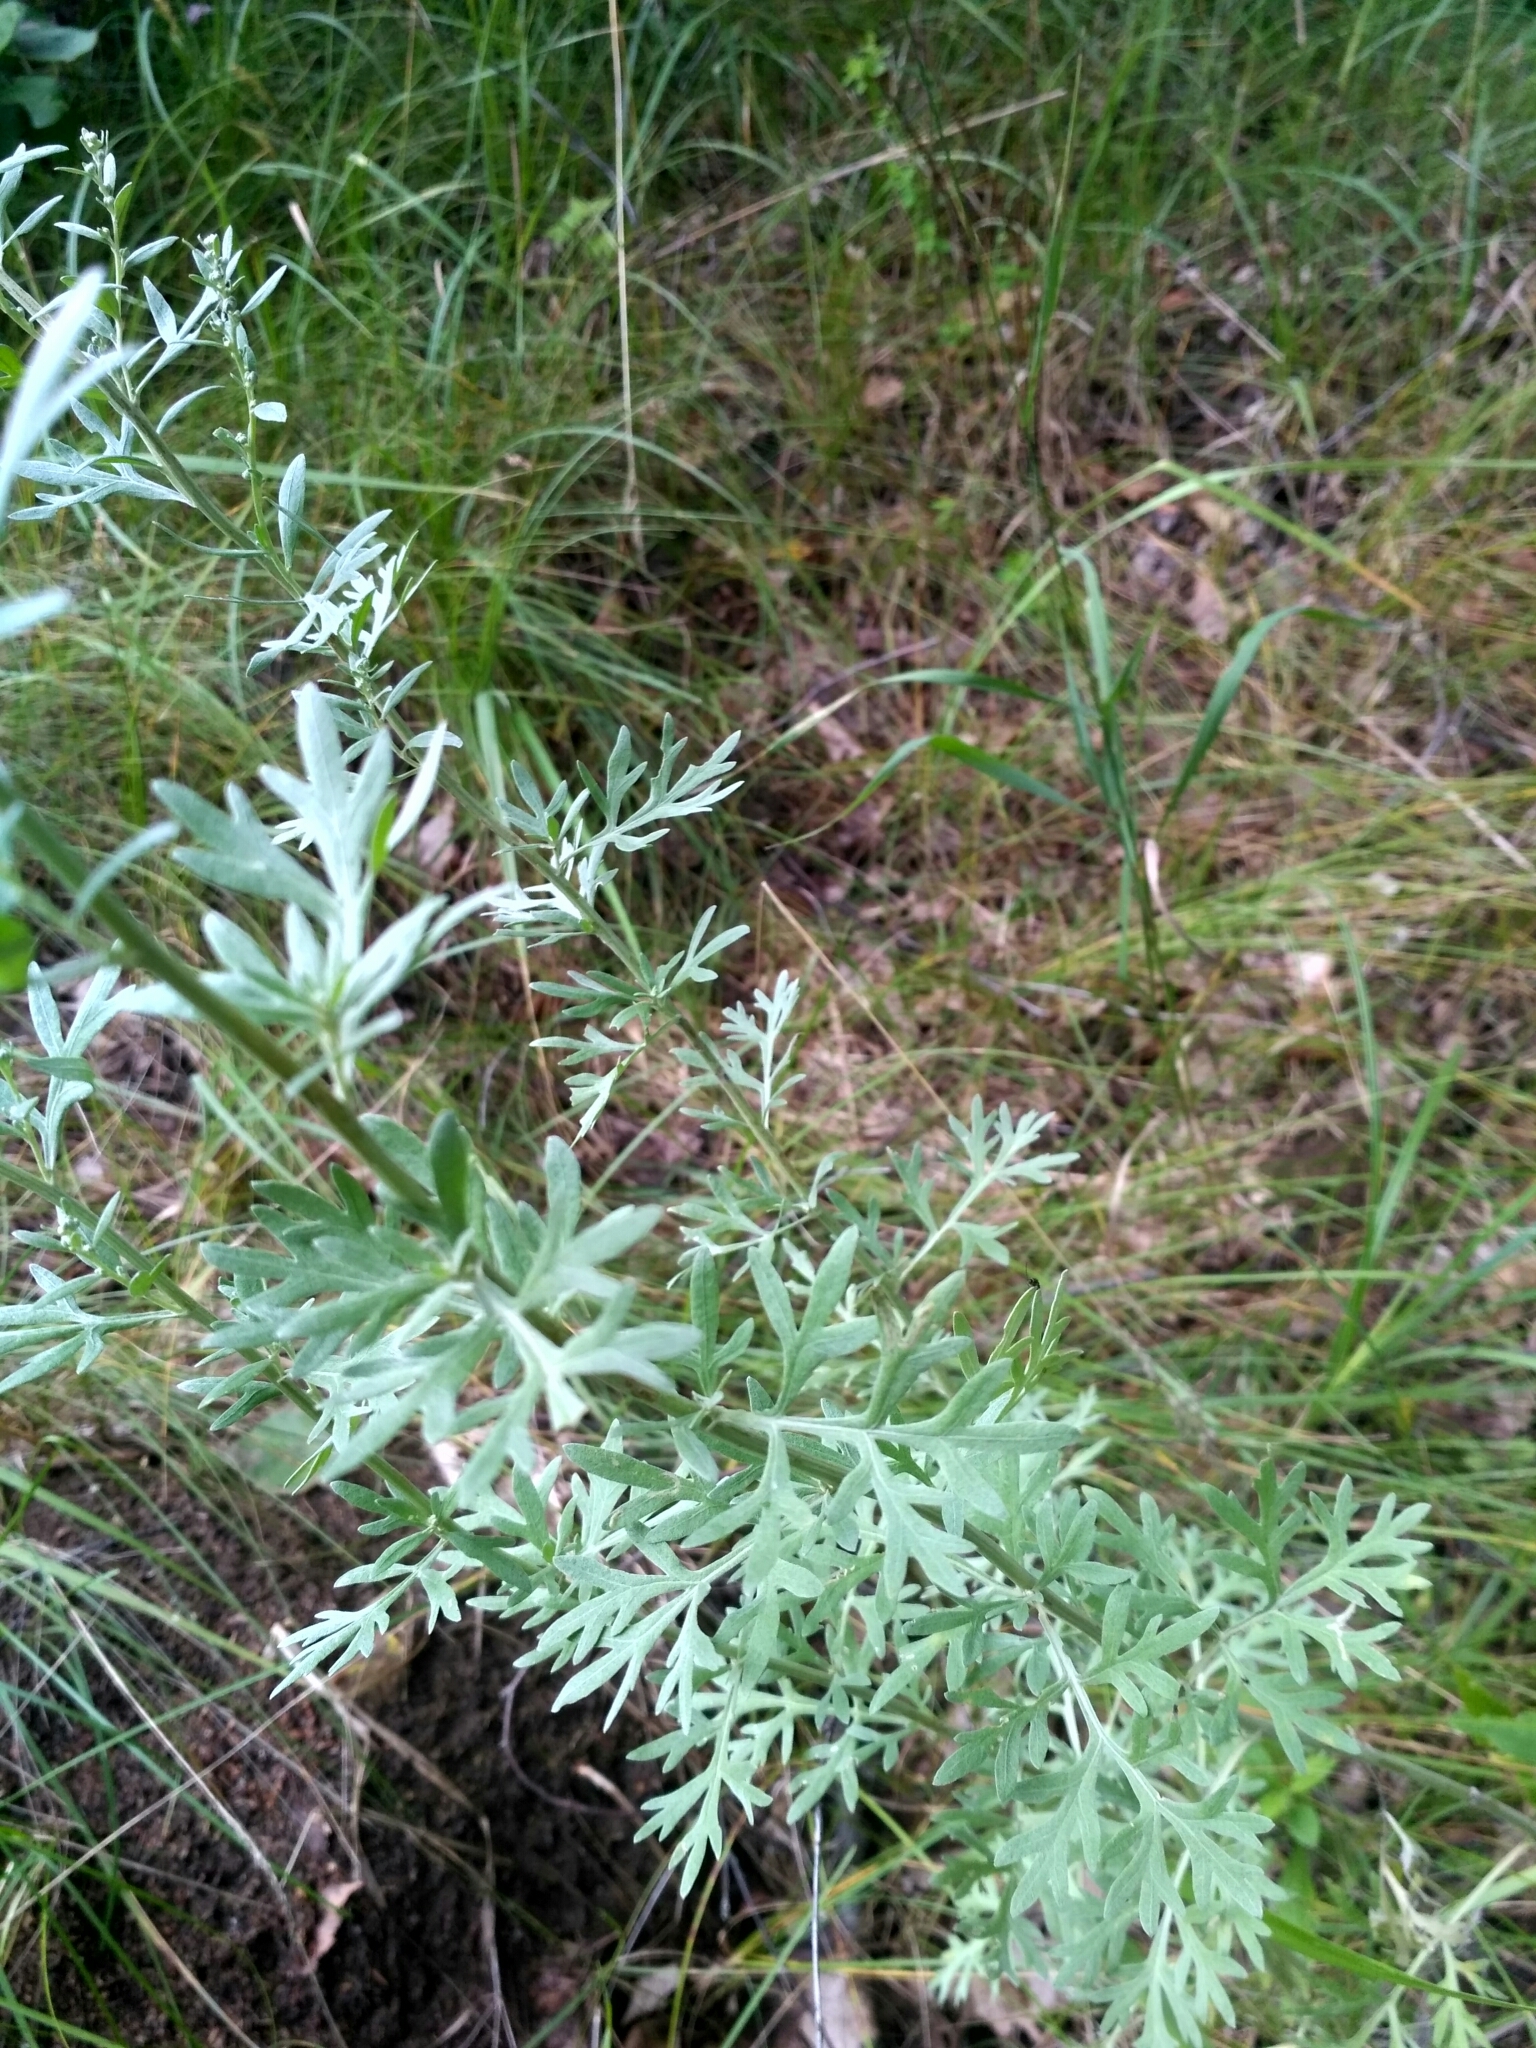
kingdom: Plantae
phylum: Tracheophyta
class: Magnoliopsida
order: Asterales
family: Asteraceae
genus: Artemisia
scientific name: Artemisia absinthium
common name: Wormwood
